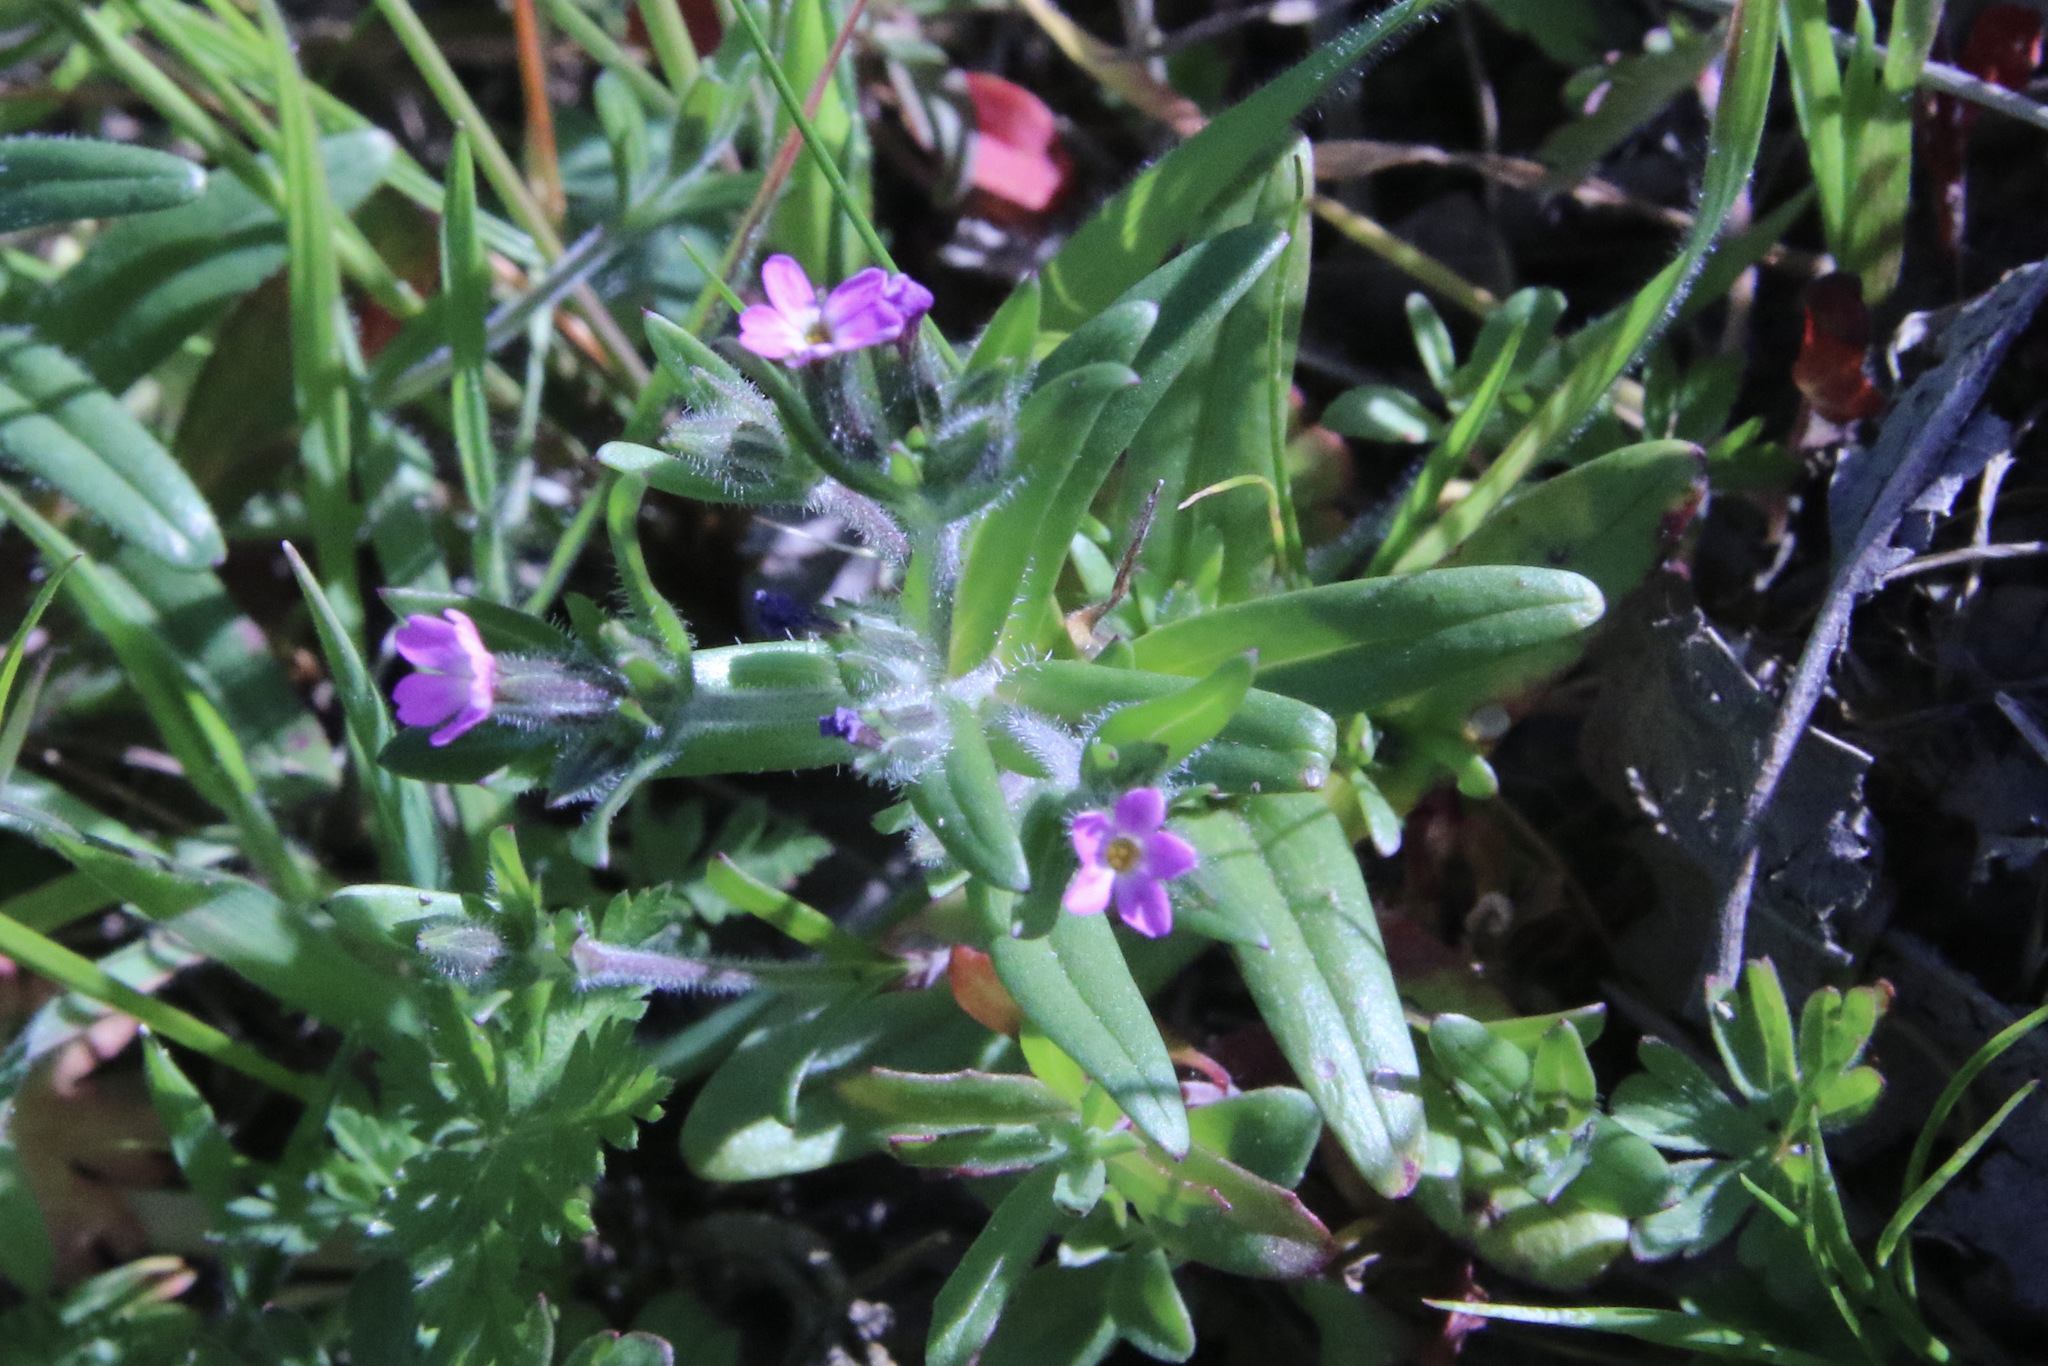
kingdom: Plantae
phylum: Tracheophyta
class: Magnoliopsida
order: Ericales
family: Polemoniaceae
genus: Phlox
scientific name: Phlox gracilis
